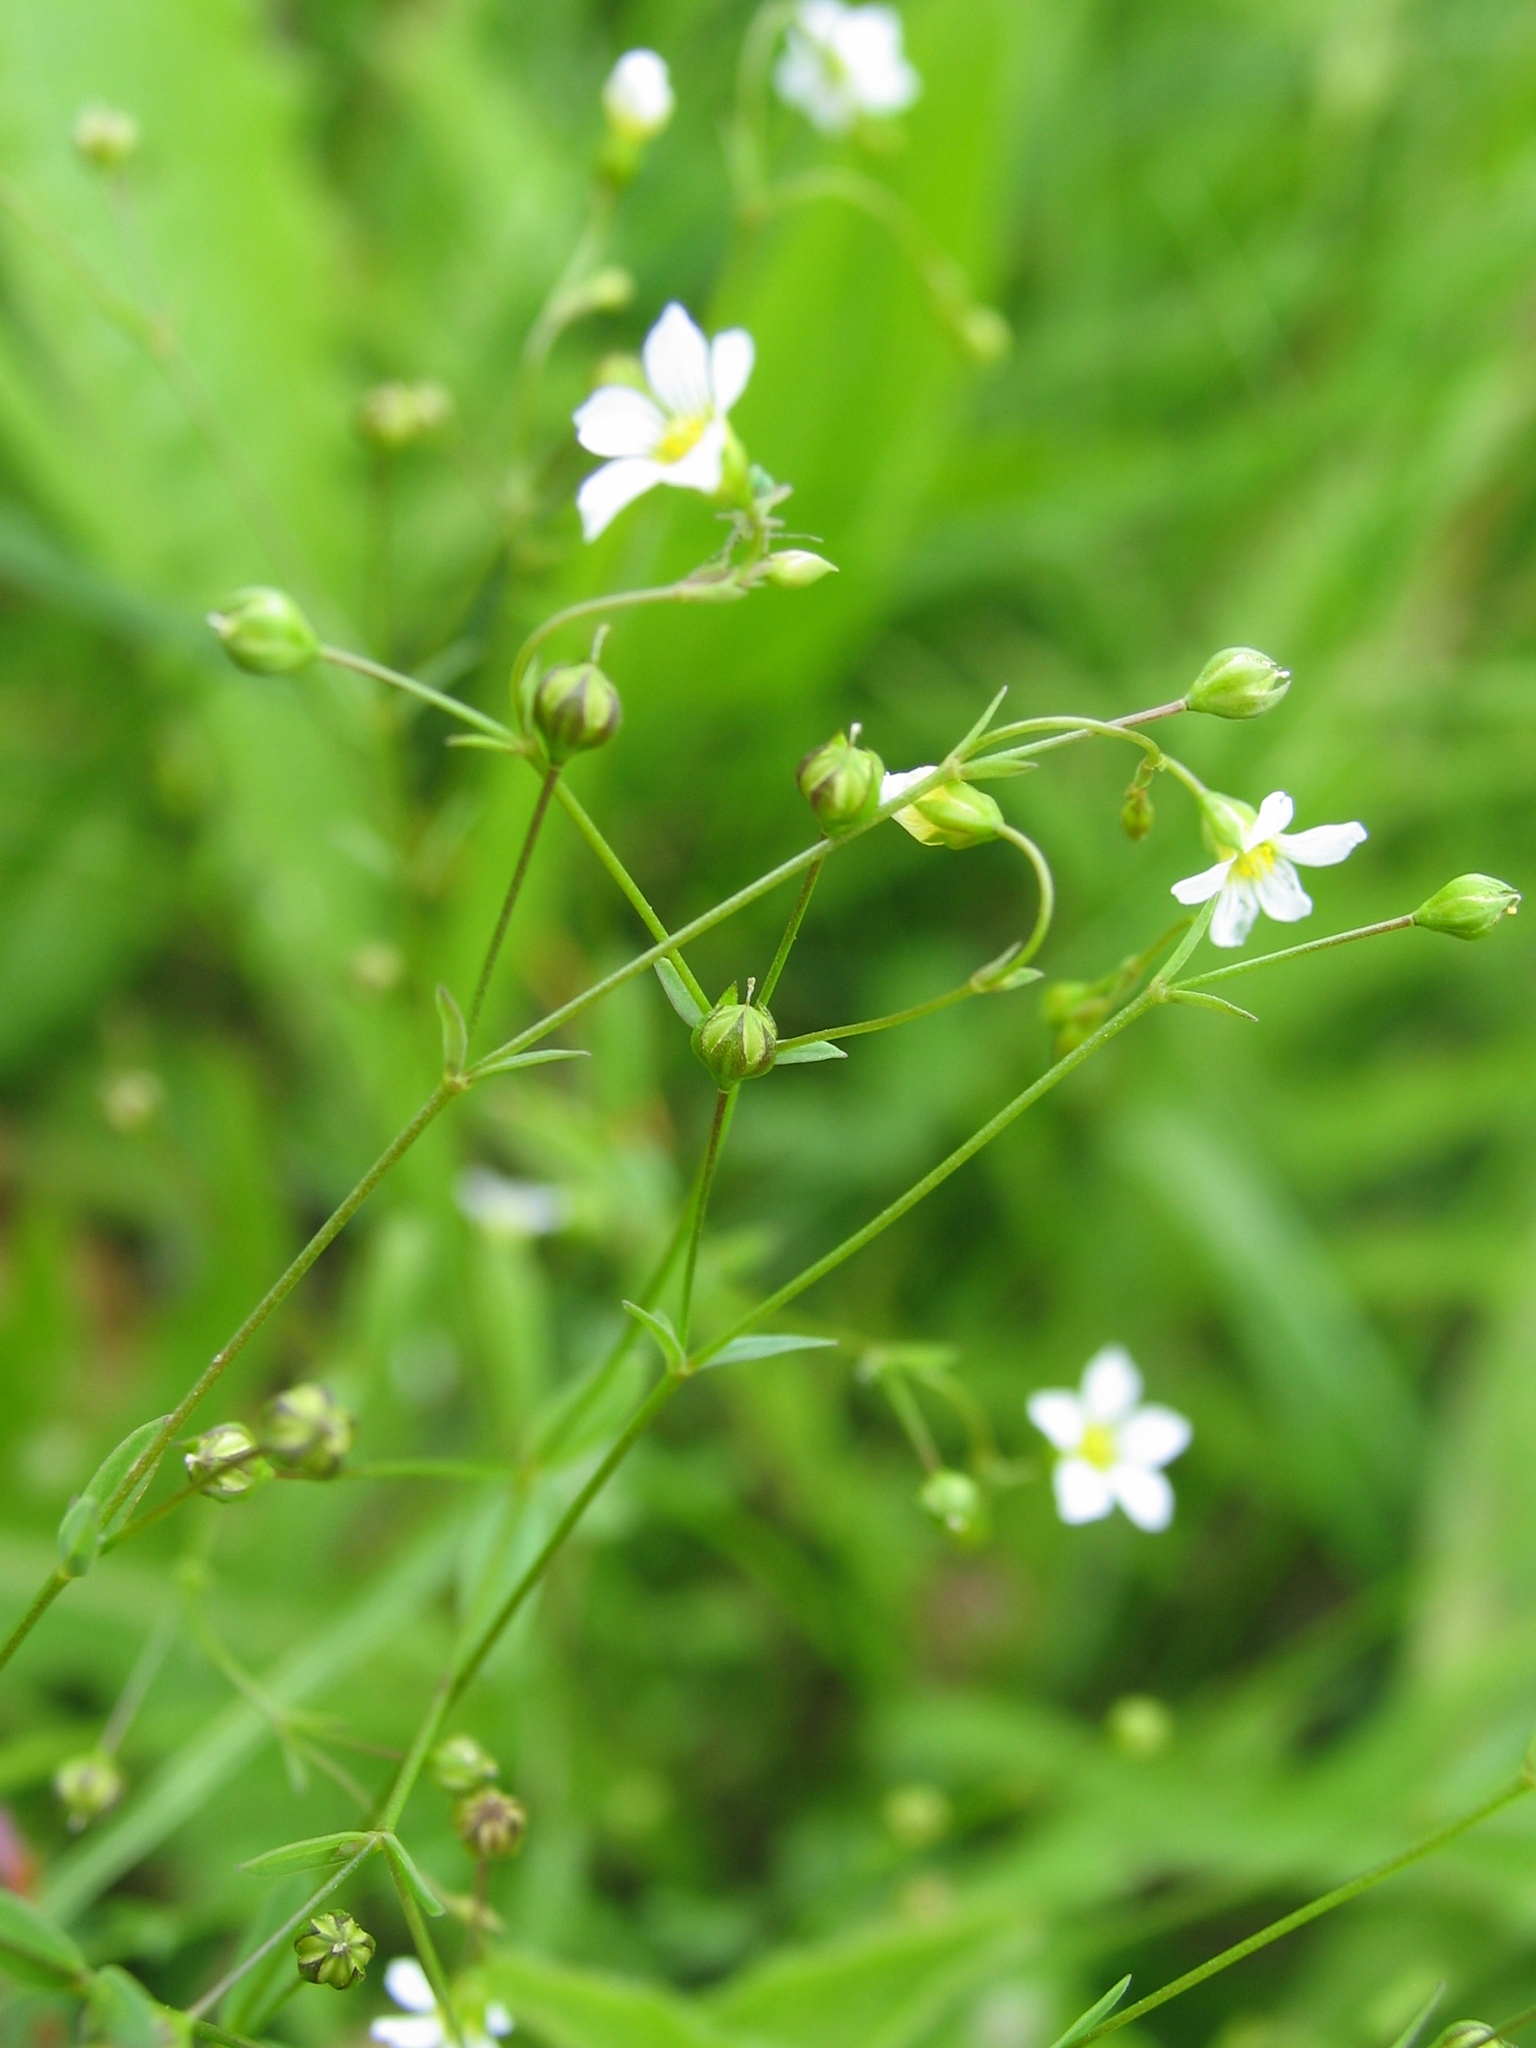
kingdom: Plantae
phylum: Tracheophyta
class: Magnoliopsida
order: Malpighiales
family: Linaceae
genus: Linum
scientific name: Linum catharticum
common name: Fairy flax
